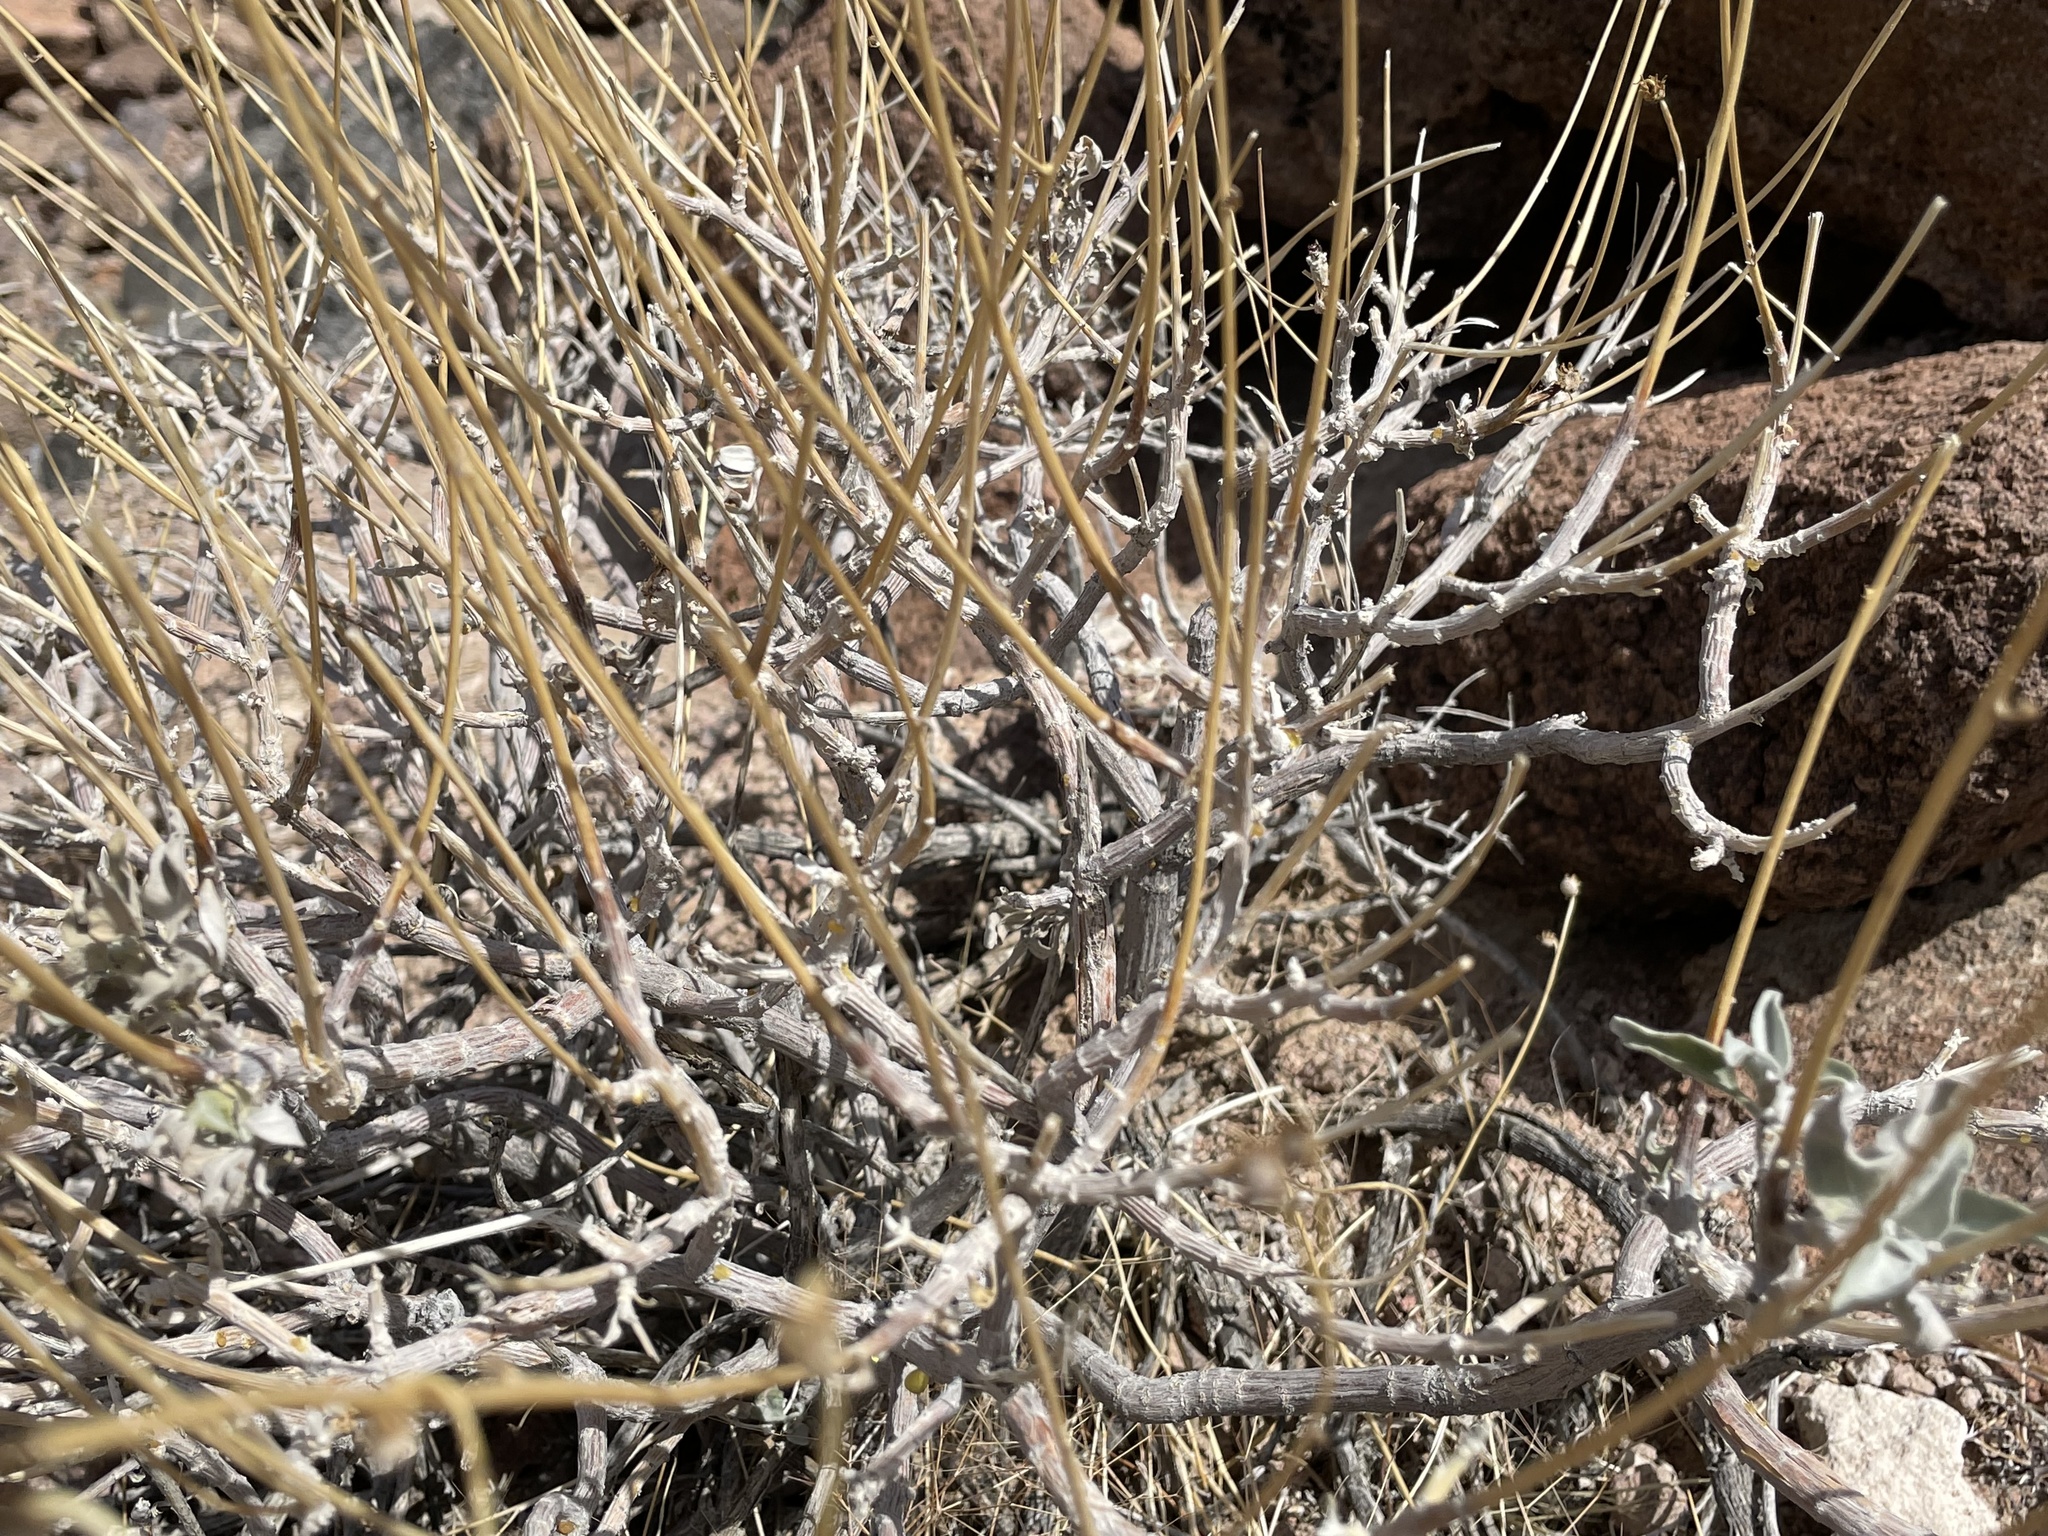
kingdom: Plantae
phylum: Tracheophyta
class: Magnoliopsida
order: Asterales
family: Asteraceae
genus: Encelia
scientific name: Encelia farinosa
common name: Brittlebush
